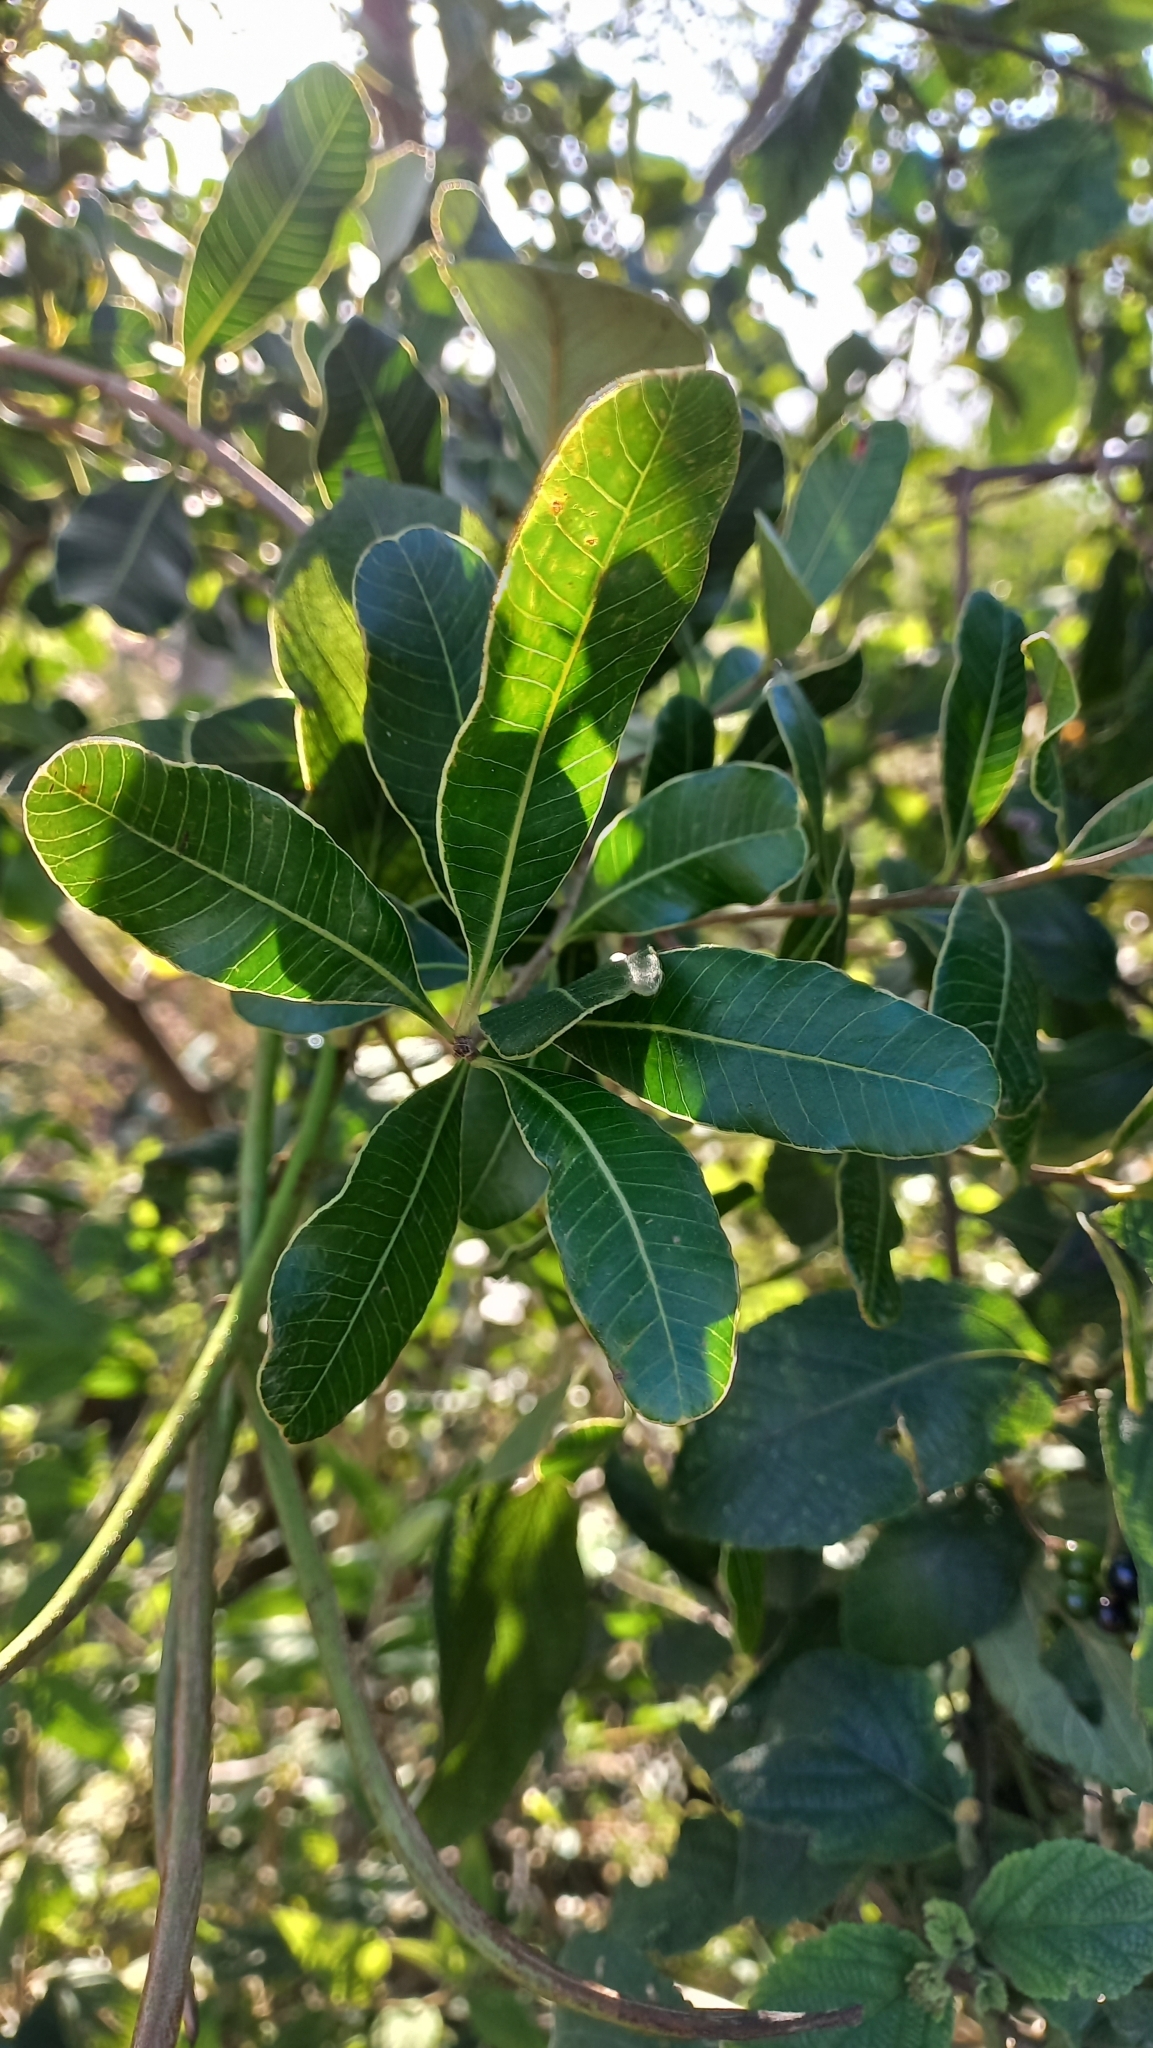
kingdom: Plantae
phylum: Tracheophyta
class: Magnoliopsida
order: Sapindales
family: Anacardiaceae
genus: Lithraea
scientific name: Lithraea brasiliensis
